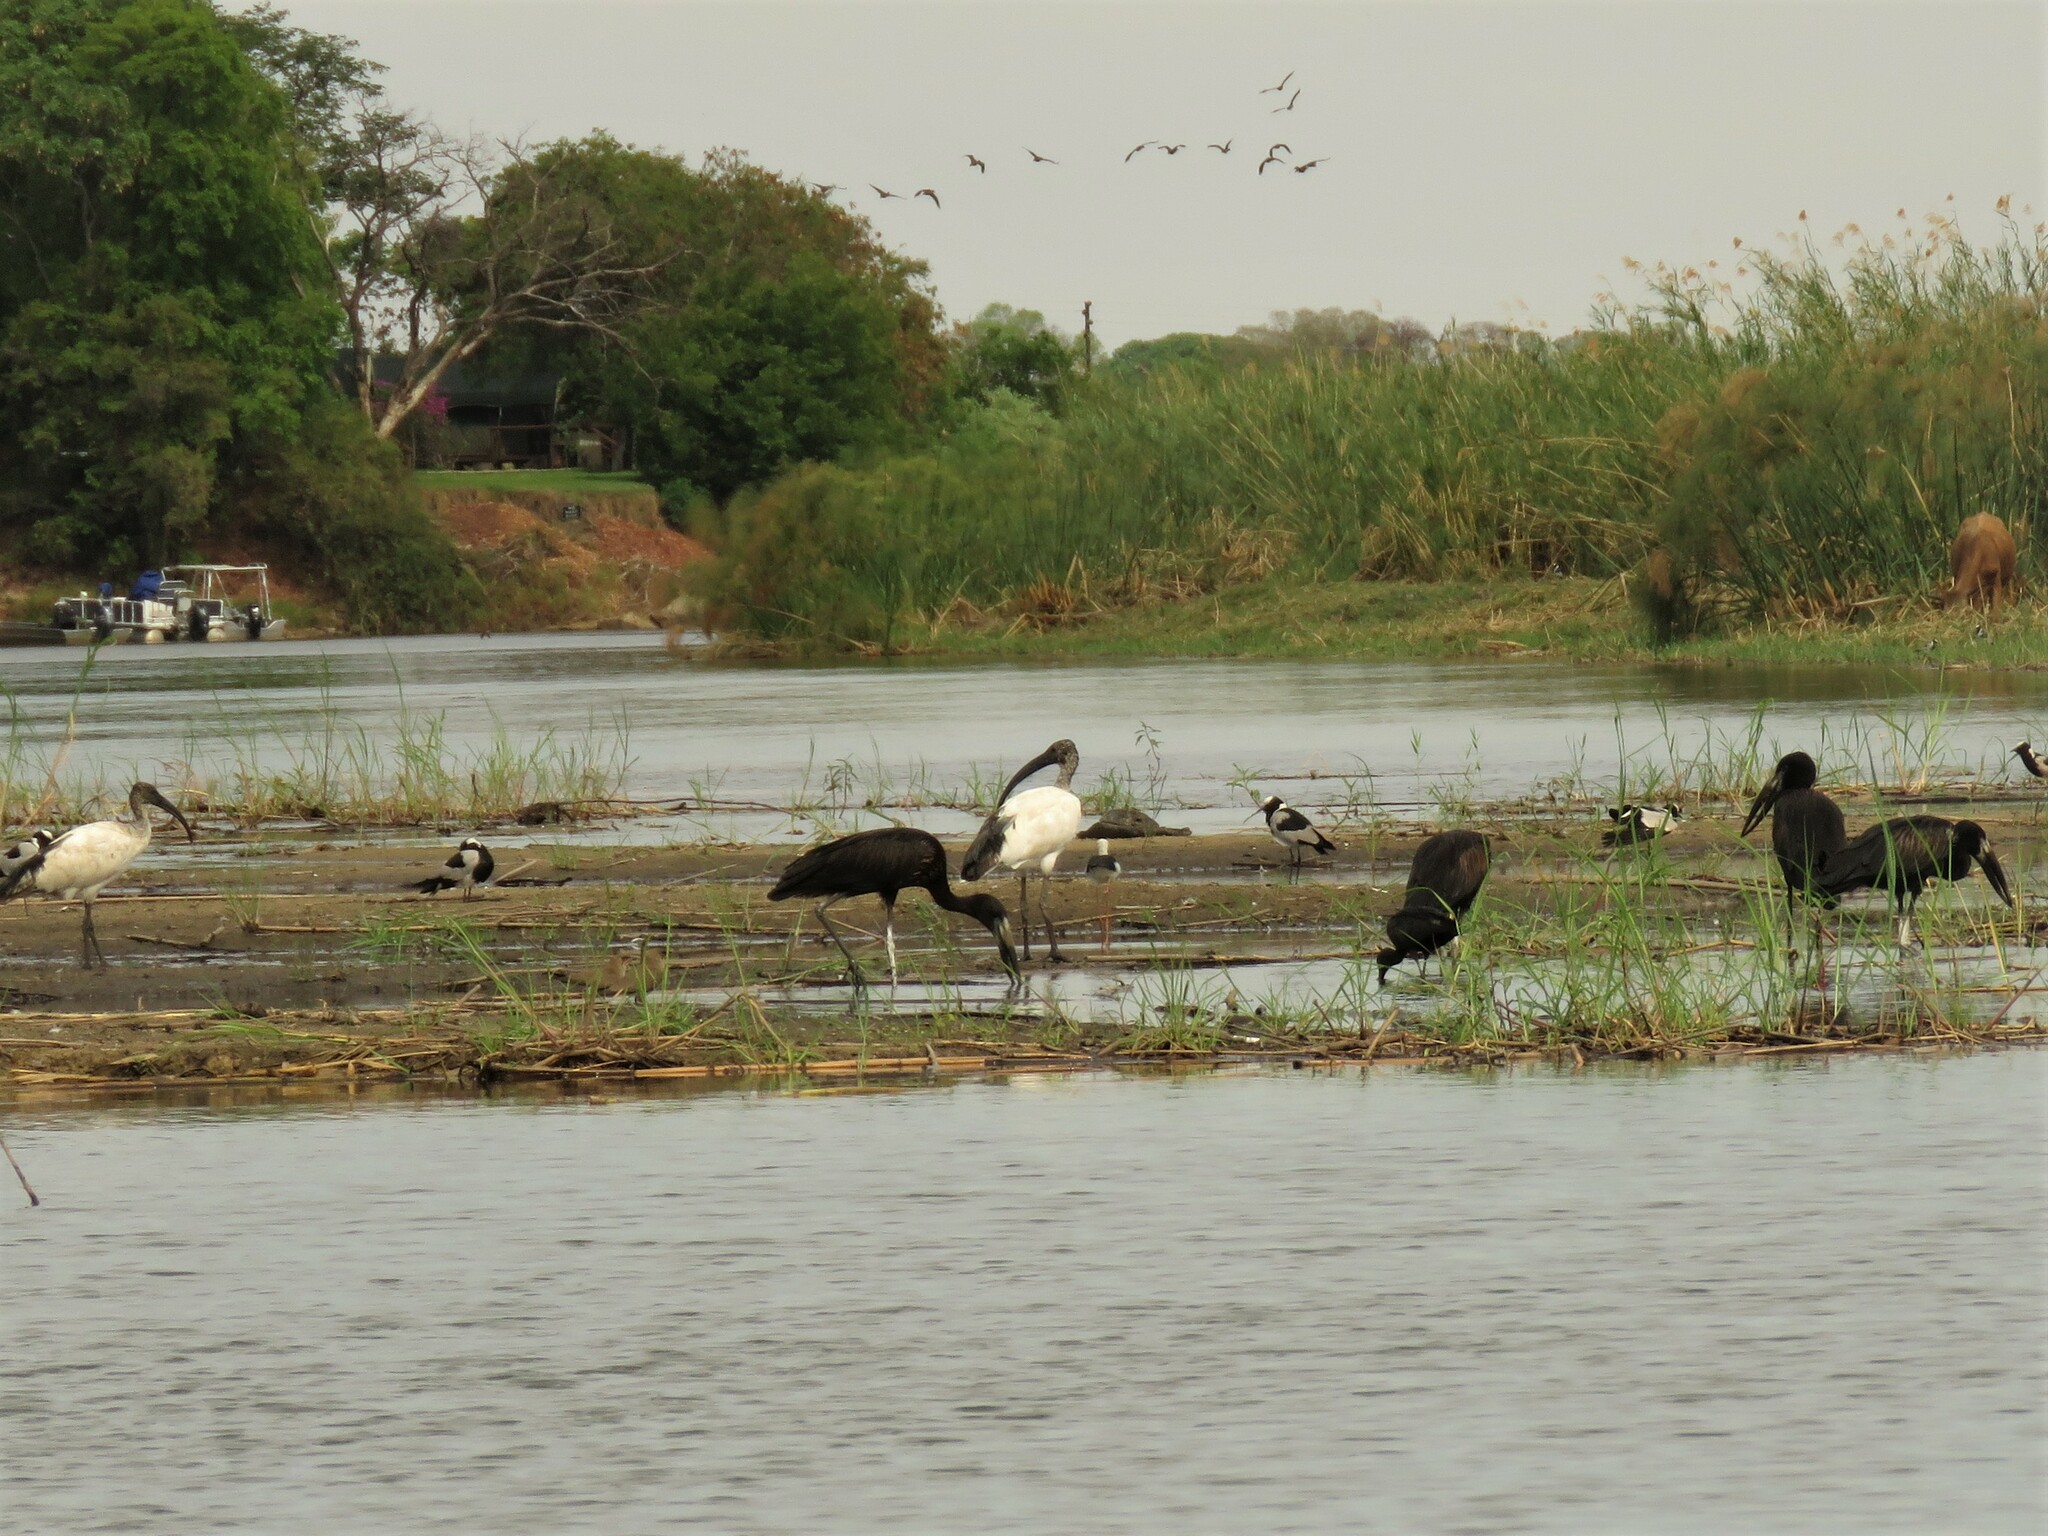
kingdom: Animalia
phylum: Chordata
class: Aves
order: Pelecaniformes
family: Threskiornithidae
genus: Threskiornis
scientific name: Threskiornis aethiopicus
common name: Sacred ibis
